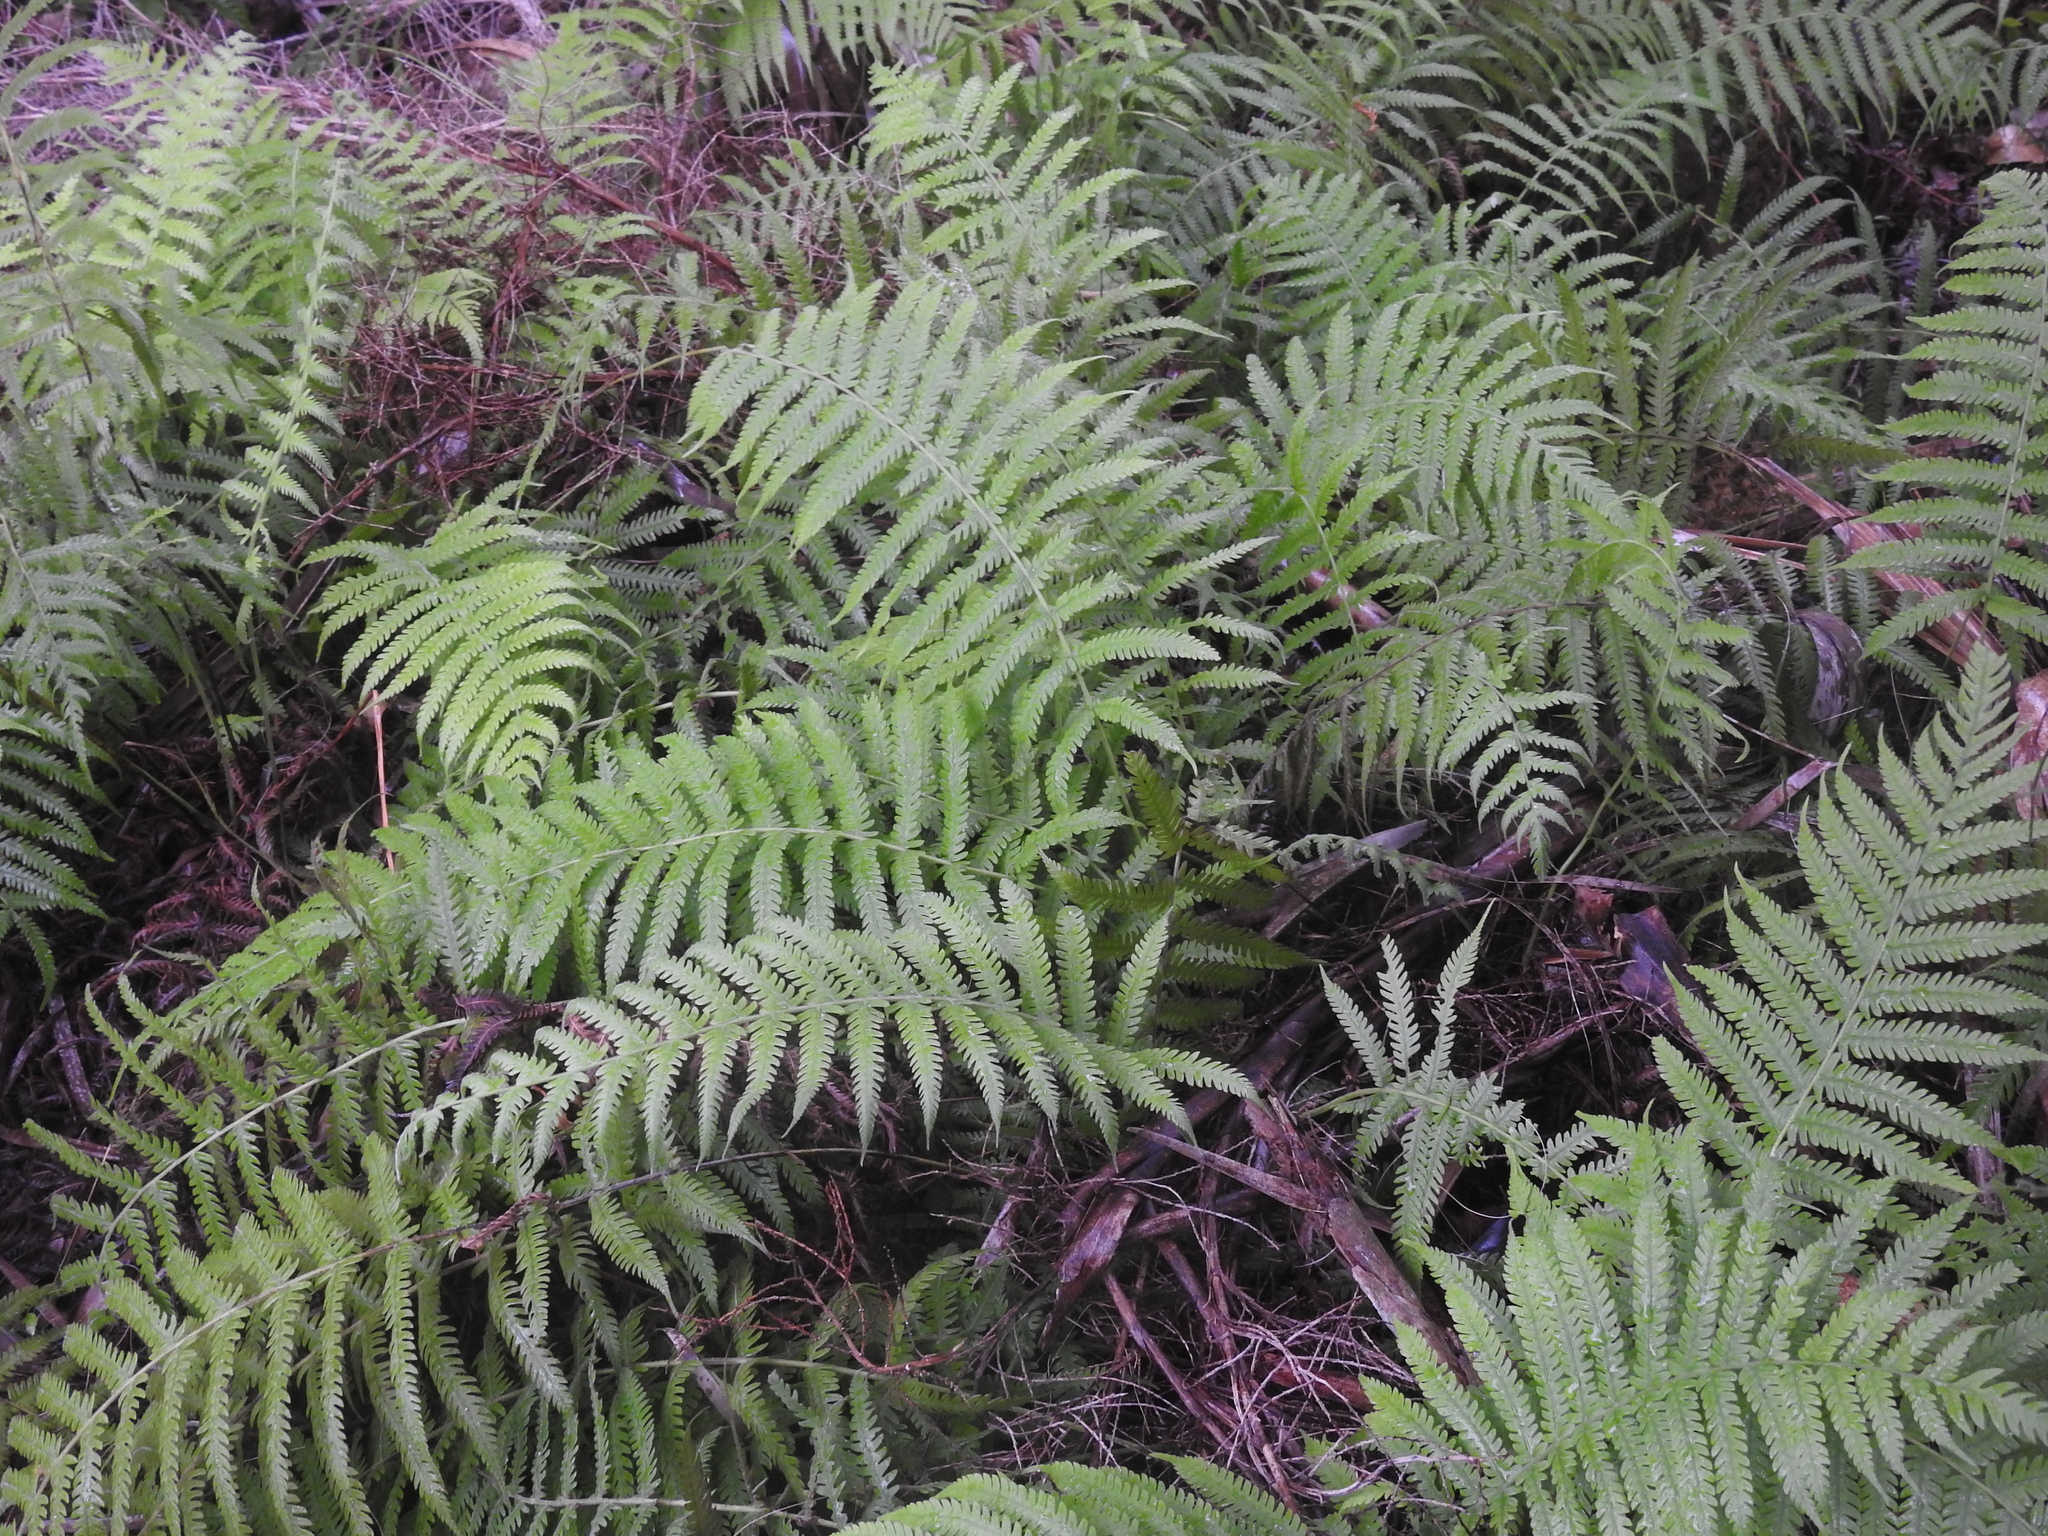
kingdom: Plantae
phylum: Tracheophyta
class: Polypodiopsida
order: Polypodiales
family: Thelypteridaceae
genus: Pelazoneuron
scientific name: Pelazoneuron kunthii
